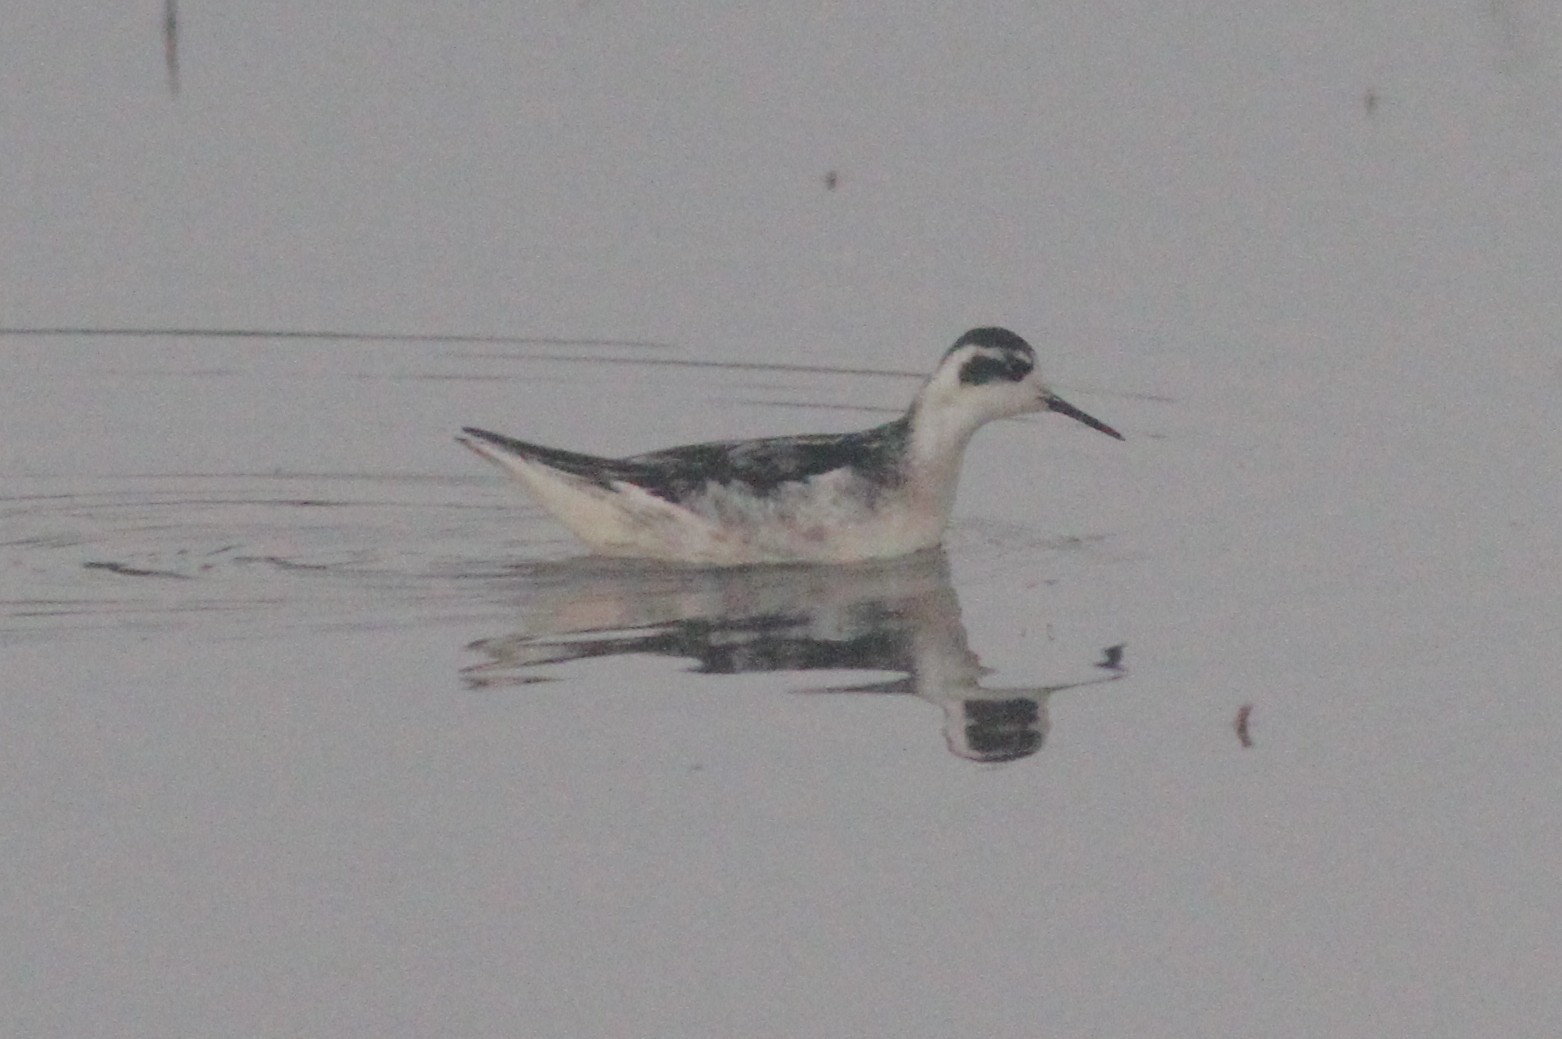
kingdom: Animalia
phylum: Chordata
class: Aves
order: Charadriiformes
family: Scolopacidae
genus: Phalaropus
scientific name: Phalaropus lobatus
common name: Red-necked phalarope
